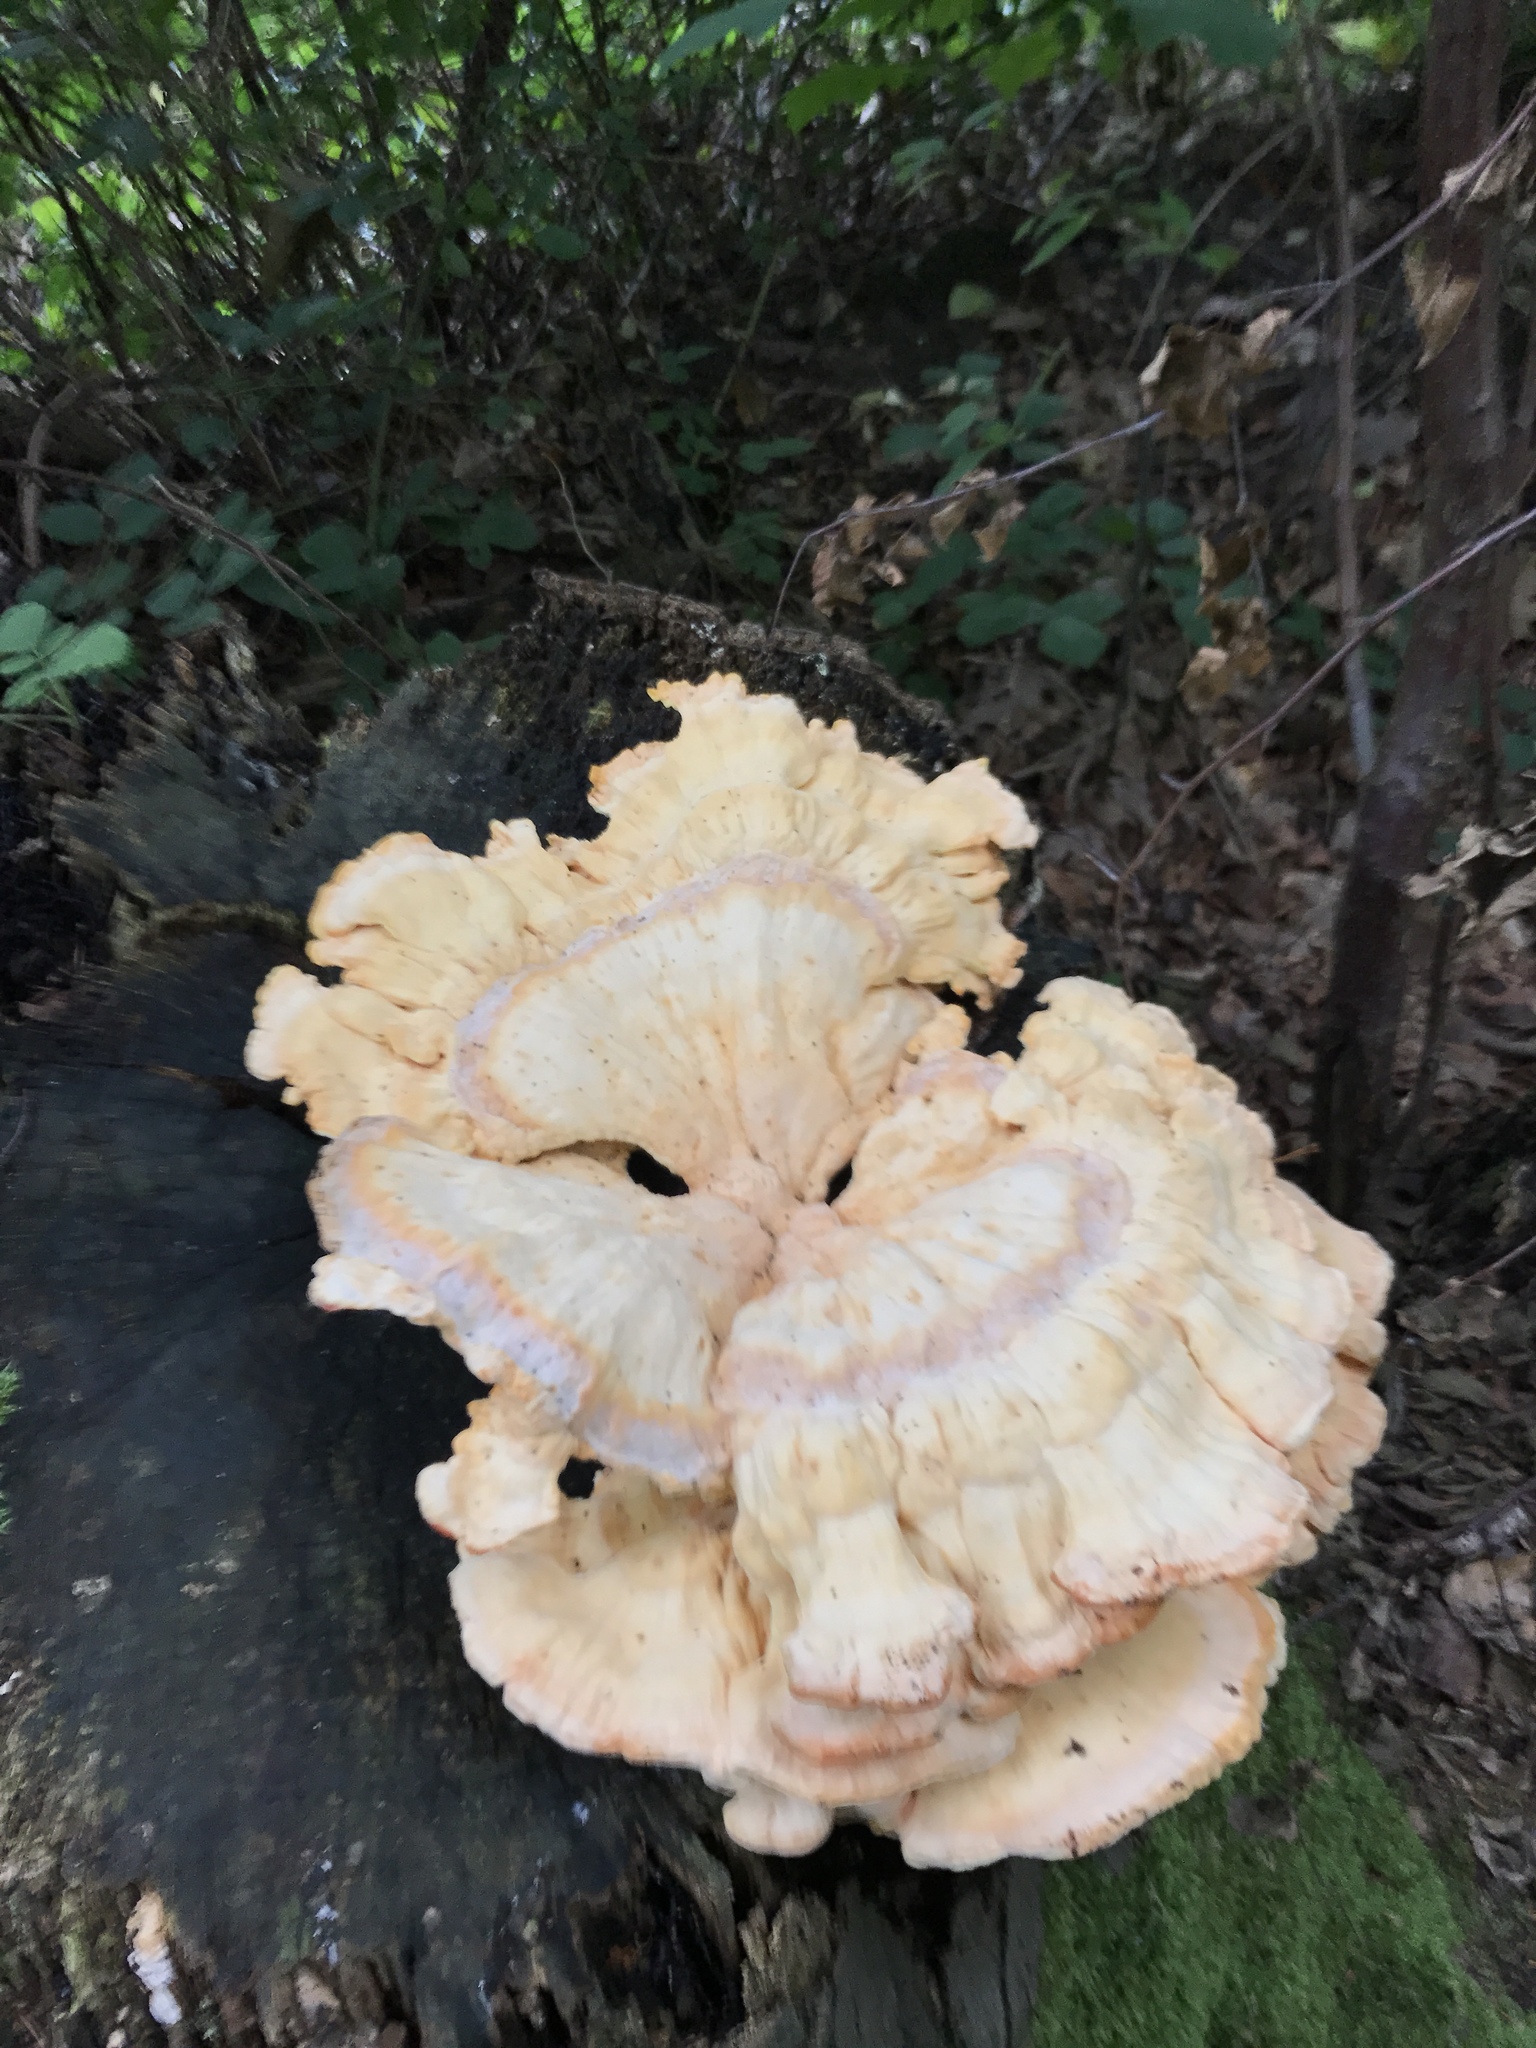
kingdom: Fungi
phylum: Basidiomycota
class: Agaricomycetes
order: Polyporales
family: Laetiporaceae
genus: Laetiporus
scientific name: Laetiporus sulphureus
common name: Chicken of the woods
